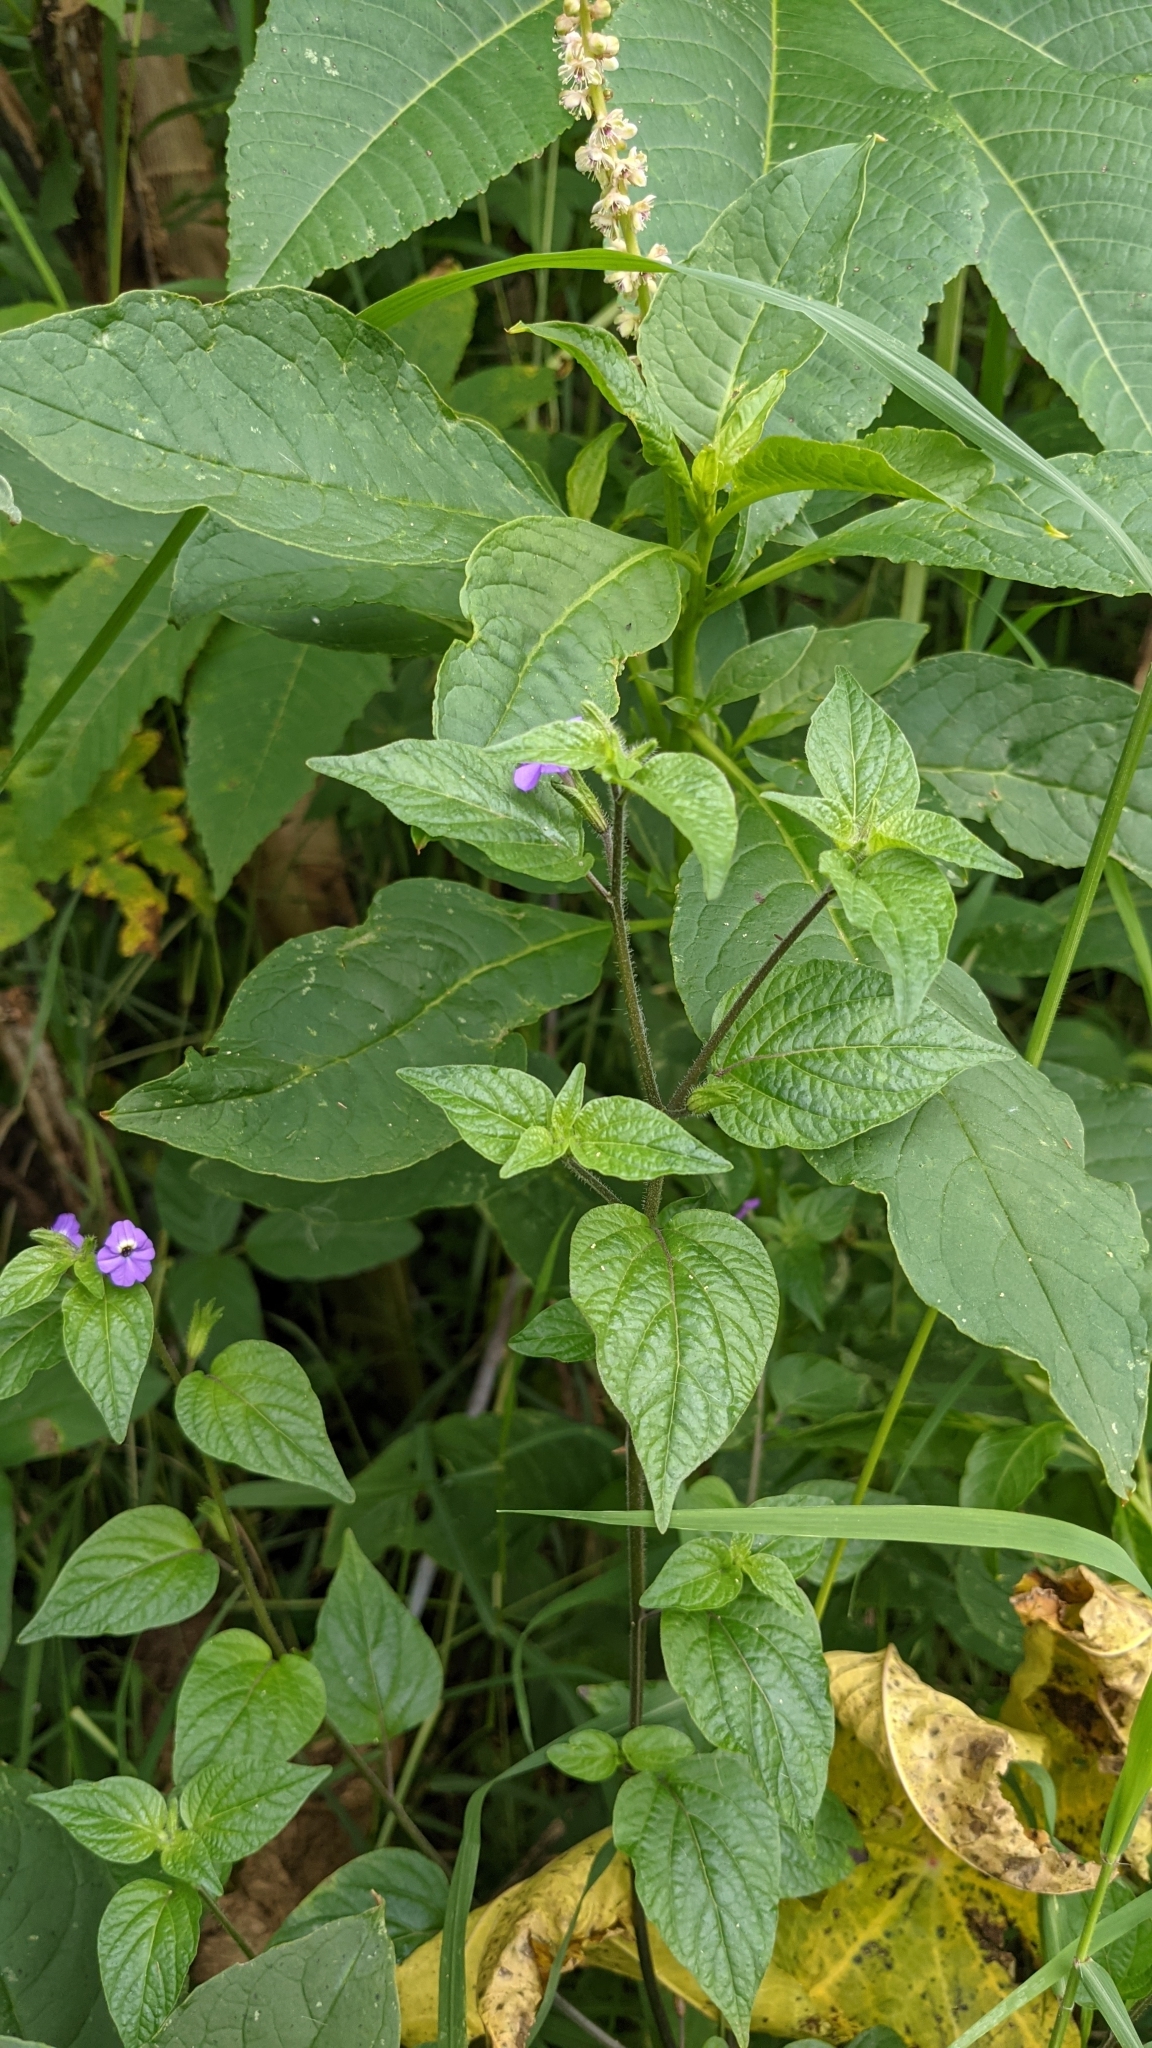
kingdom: Plantae
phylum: Tracheophyta
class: Magnoliopsida
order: Solanales
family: Solanaceae
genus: Browallia
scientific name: Browallia americana
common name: Jamaican forget-me-not
